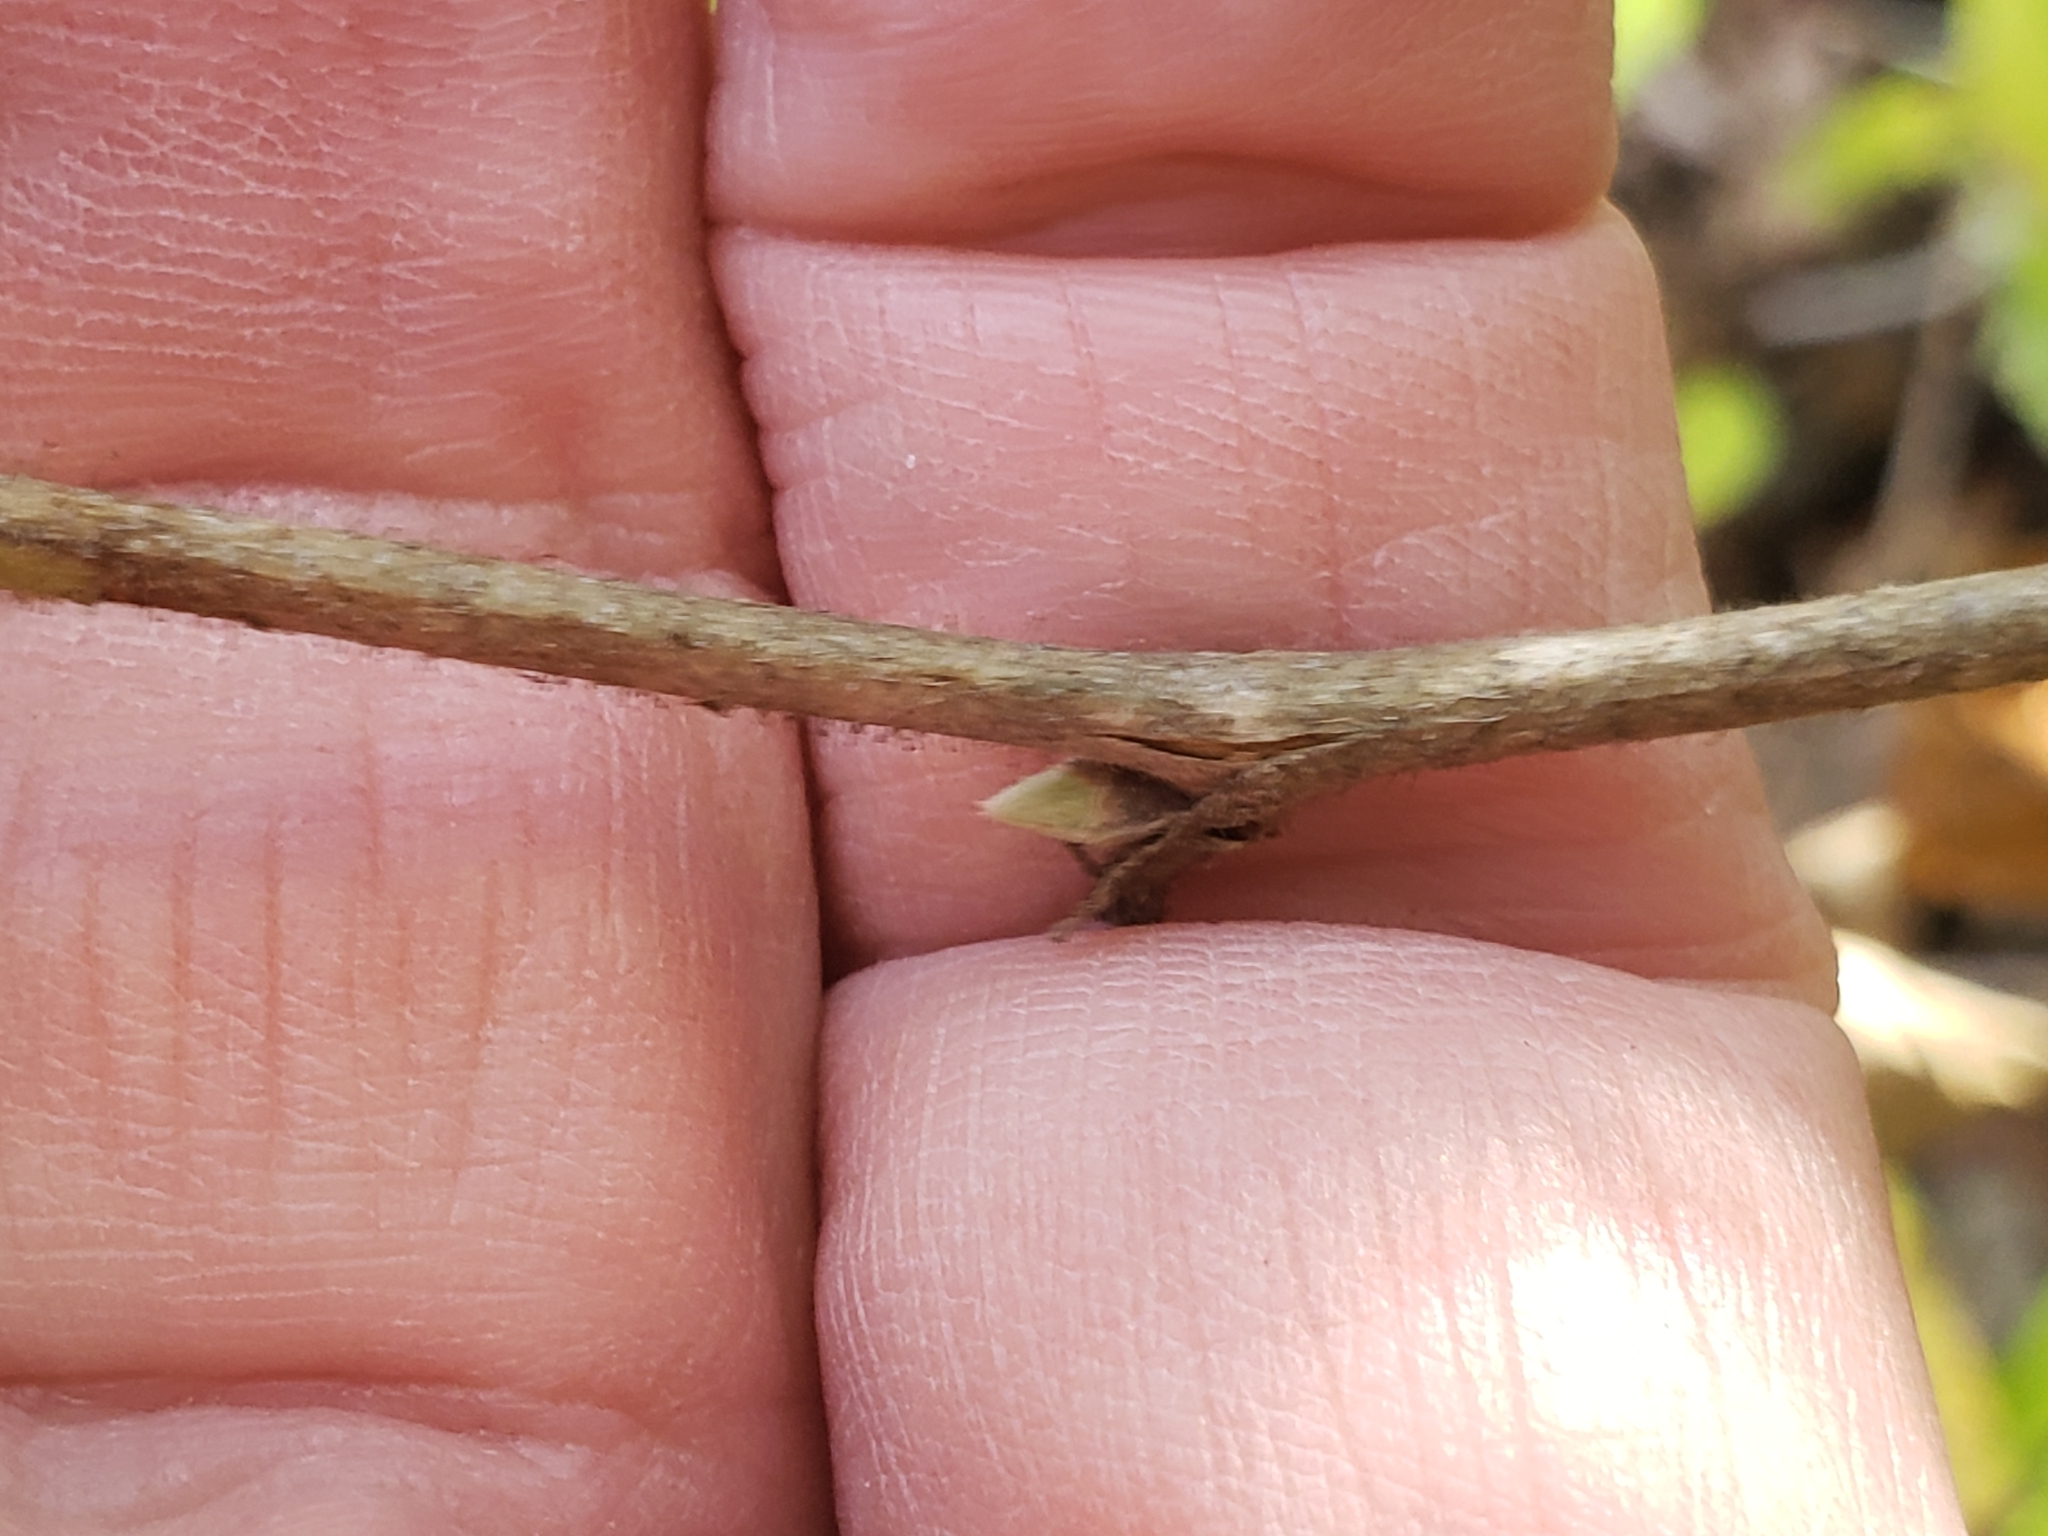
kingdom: Plantae
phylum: Tracheophyta
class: Magnoliopsida
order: Rosales
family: Rosaceae
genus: Rubus
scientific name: Rubus odoratus
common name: Purple-flowered raspberry
